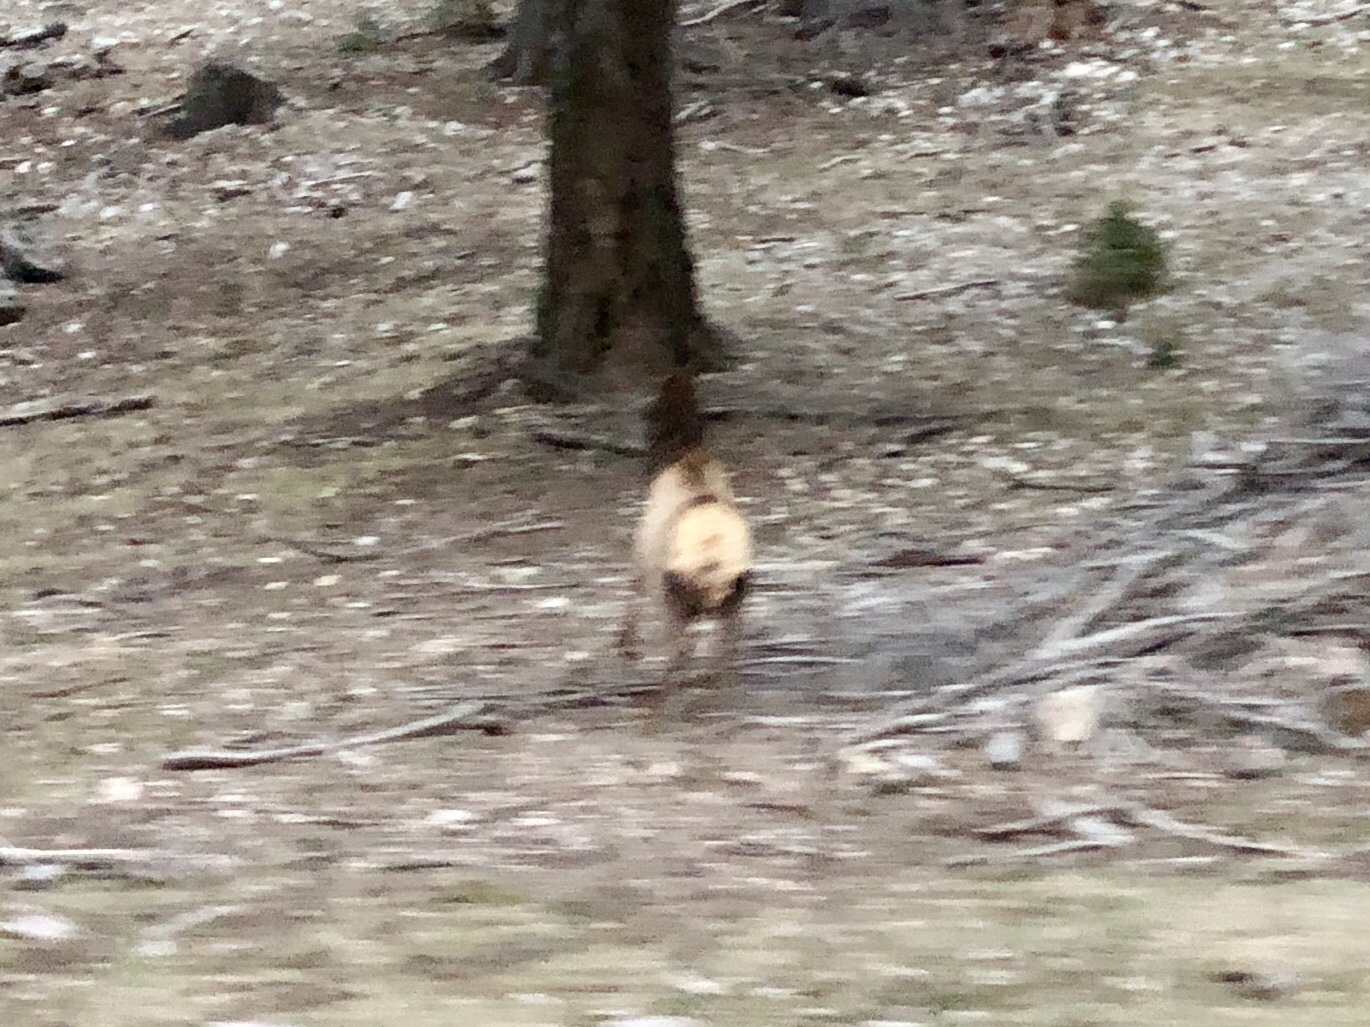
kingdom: Animalia
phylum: Chordata
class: Mammalia
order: Artiodactyla
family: Cervidae
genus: Cervus
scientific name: Cervus elaphus
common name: Red deer
